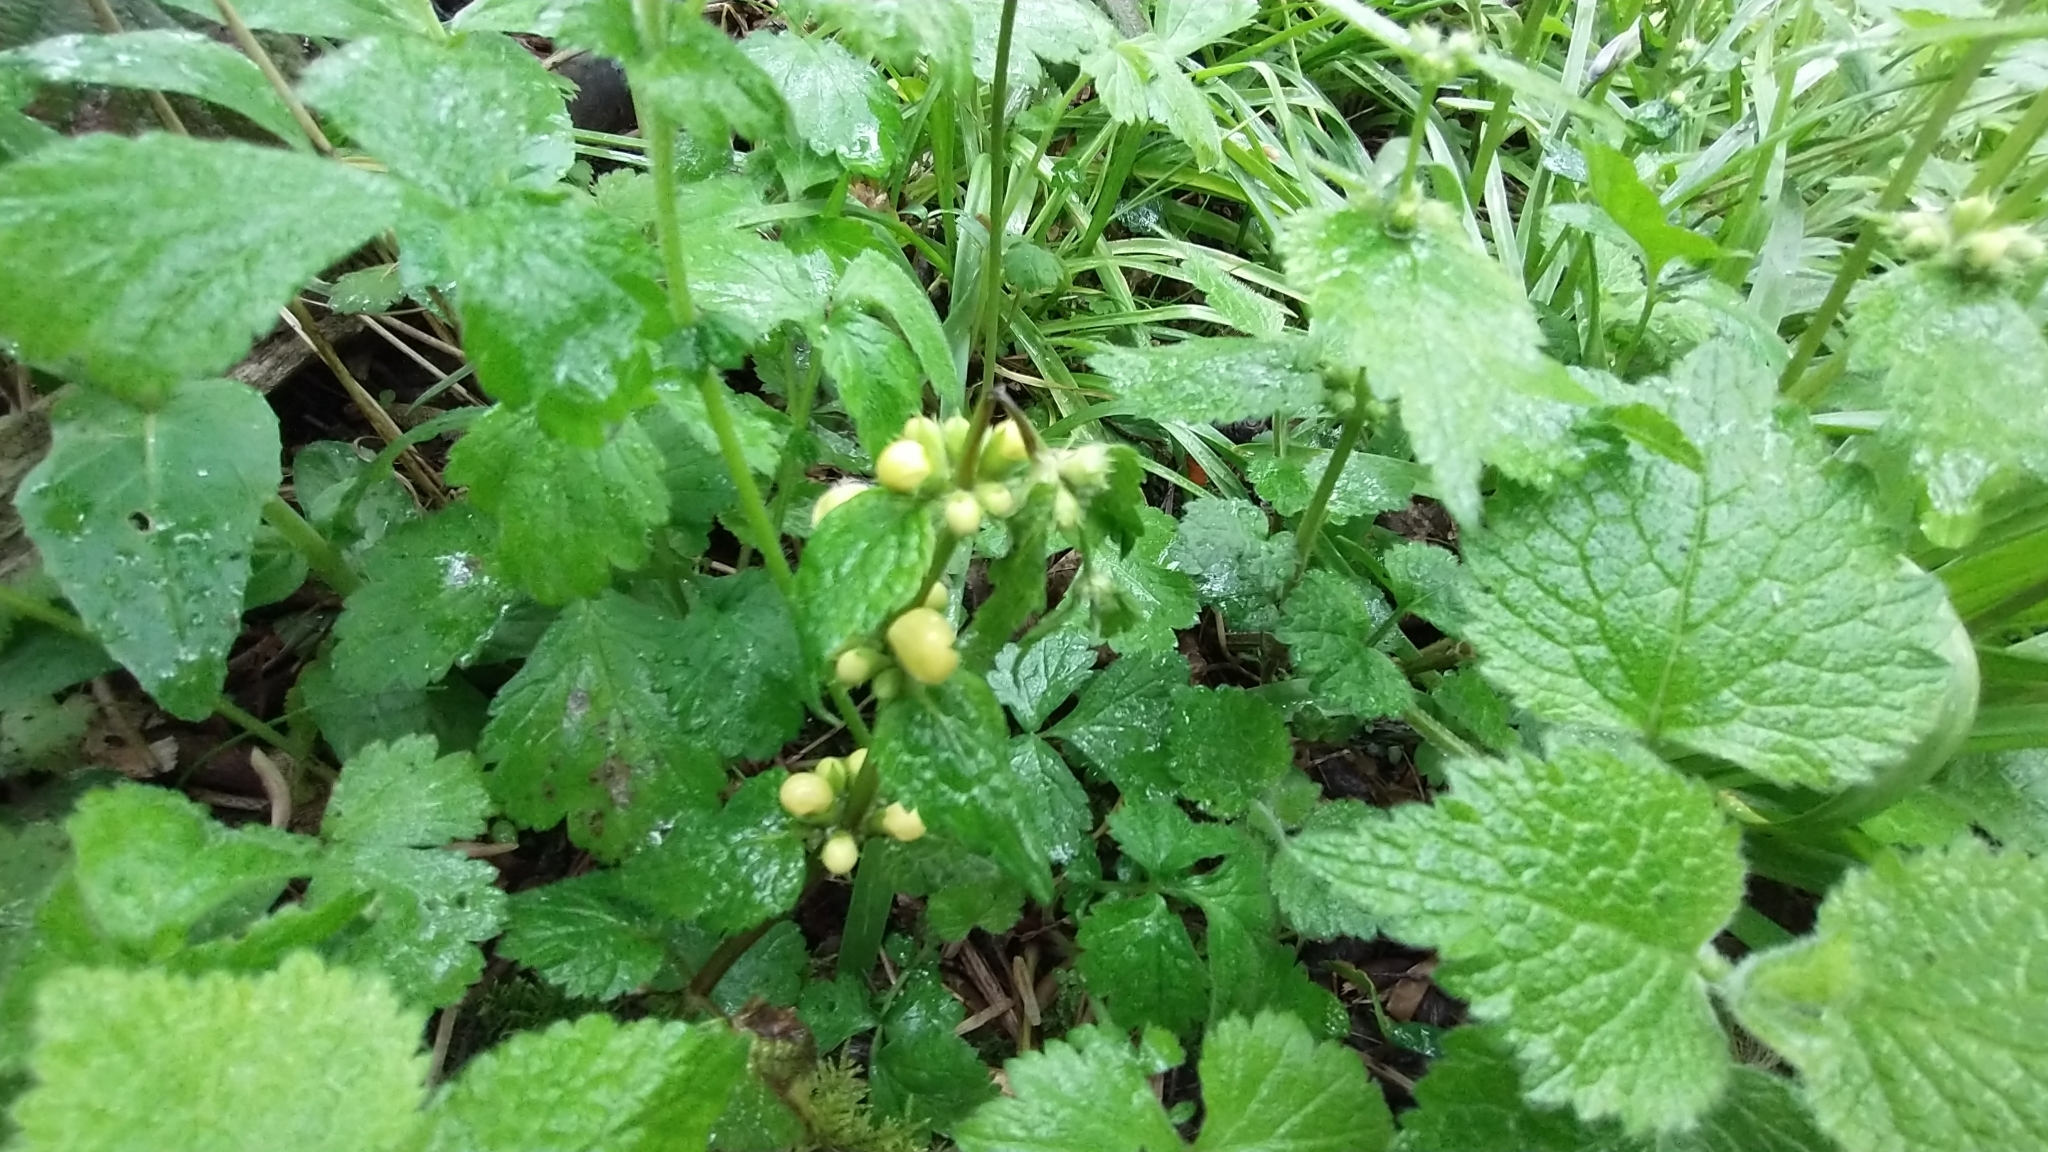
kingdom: Plantae
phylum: Tracheophyta
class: Magnoliopsida
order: Lamiales
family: Lamiaceae
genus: Lamium
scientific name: Lamium galeobdolon
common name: Yellow archangel
